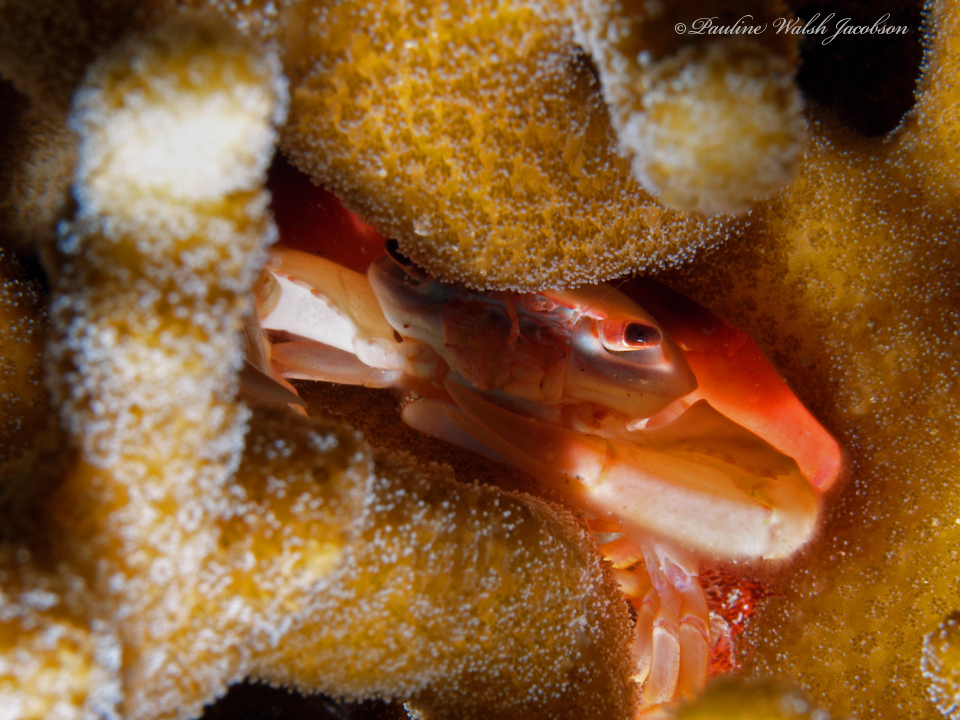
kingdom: Animalia
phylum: Arthropoda
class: Malacostraca
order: Decapoda
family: Trapeziidae
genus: Trapezia
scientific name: Trapezia cymodoce
